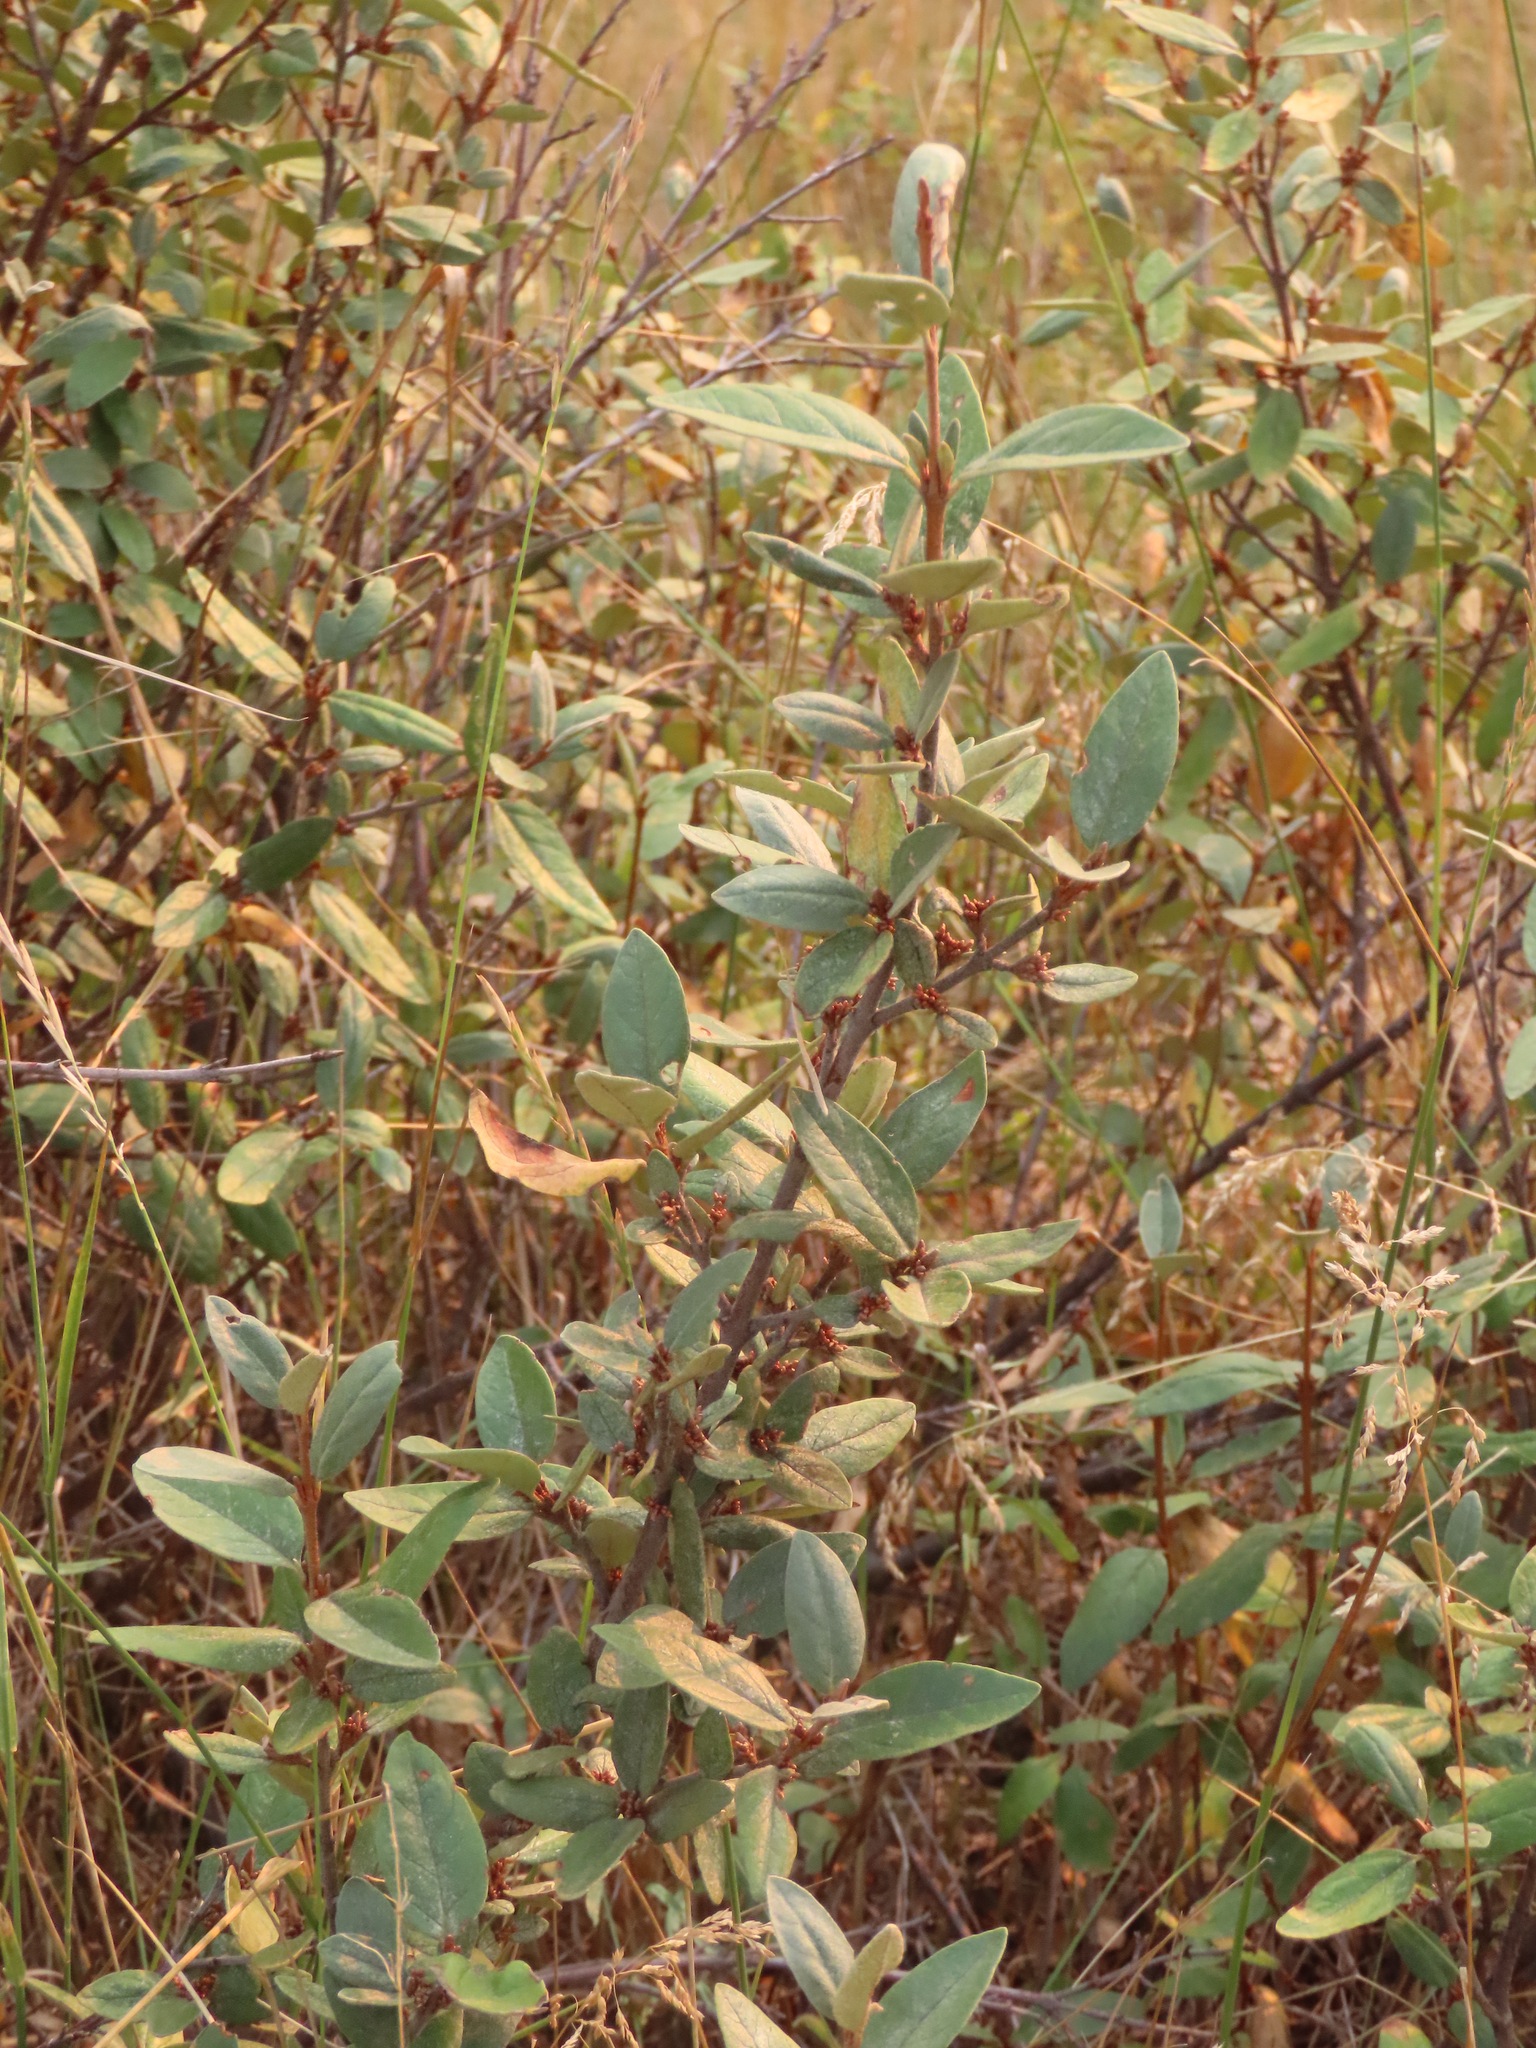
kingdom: Plantae
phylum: Tracheophyta
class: Magnoliopsida
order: Rosales
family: Elaeagnaceae
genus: Shepherdia
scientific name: Shepherdia canadensis
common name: Soapberry
